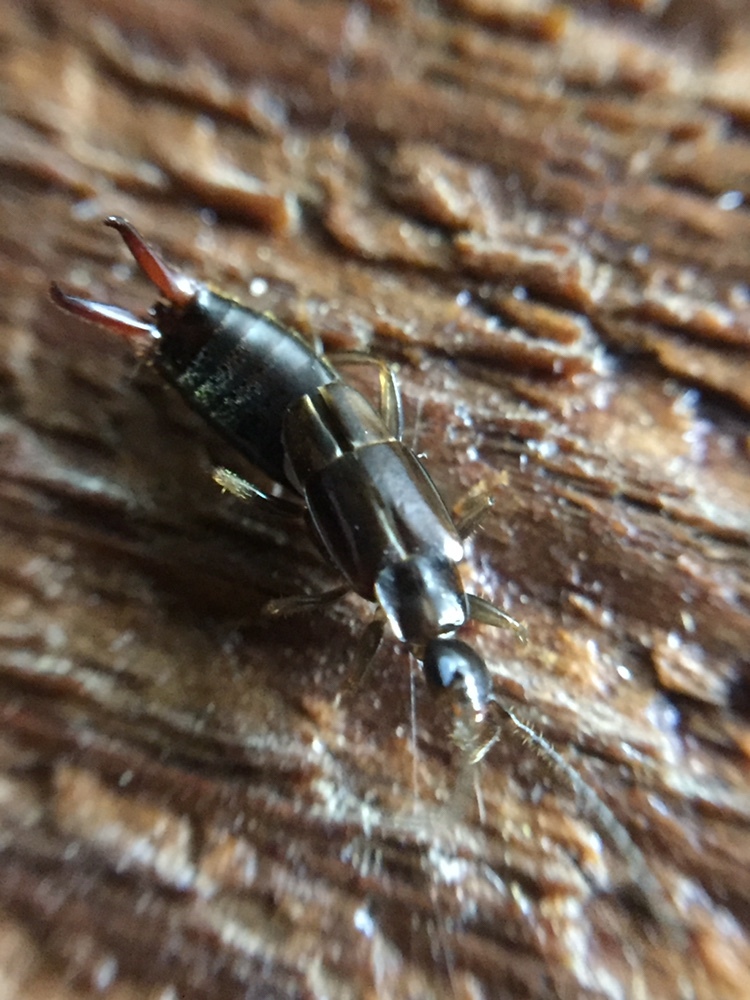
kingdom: Animalia
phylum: Arthropoda
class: Insecta
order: Dermaptera
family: Spongiphoridae
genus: Nesogaster
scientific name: Nesogaster halli
